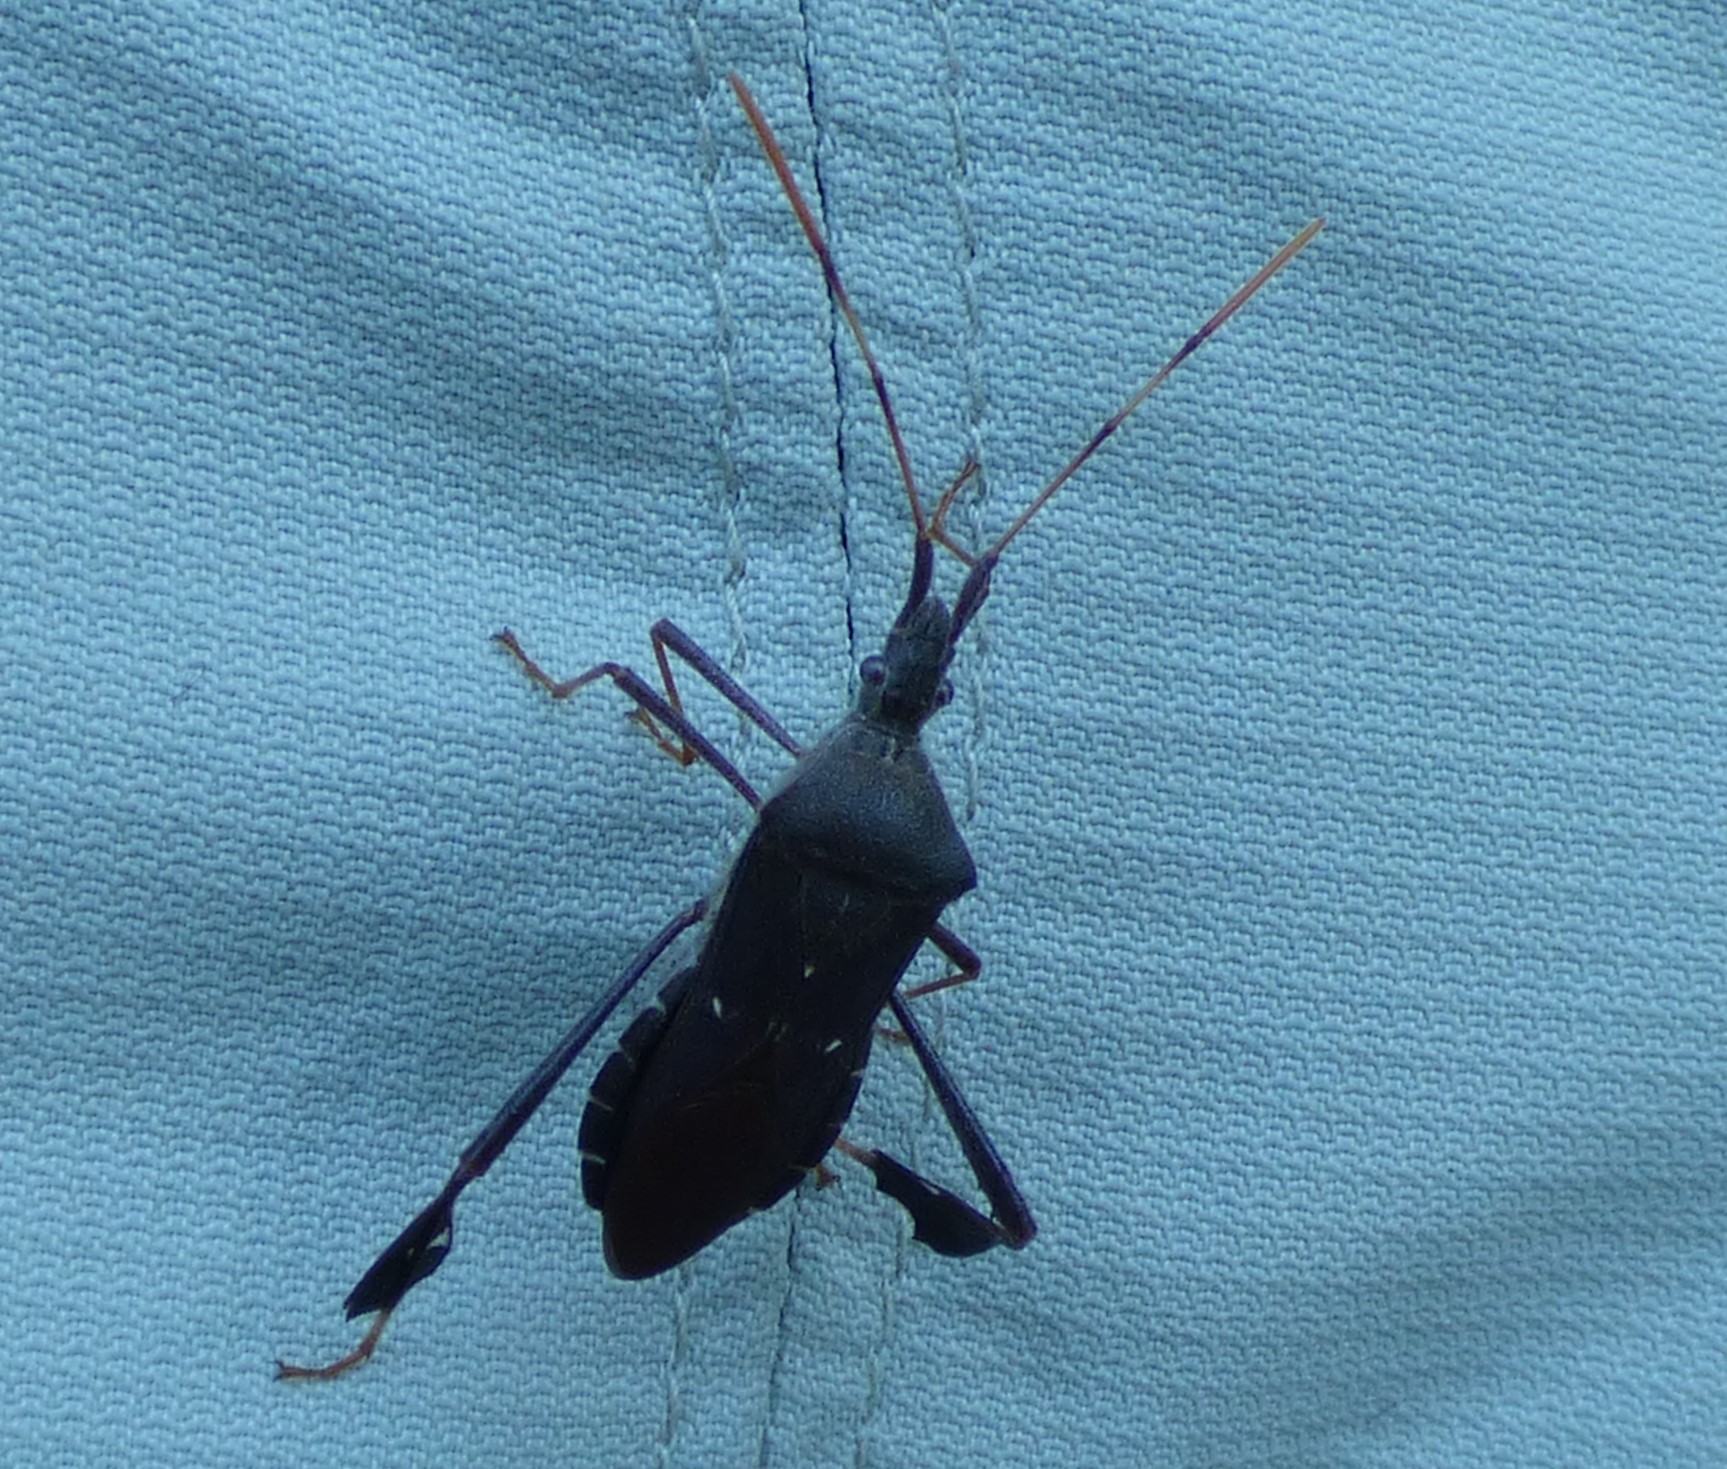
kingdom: Animalia
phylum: Arthropoda
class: Insecta
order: Hemiptera
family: Coreidae
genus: Leptoglossus
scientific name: Leptoglossus oppositus
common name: Northern leaf-footed bug
